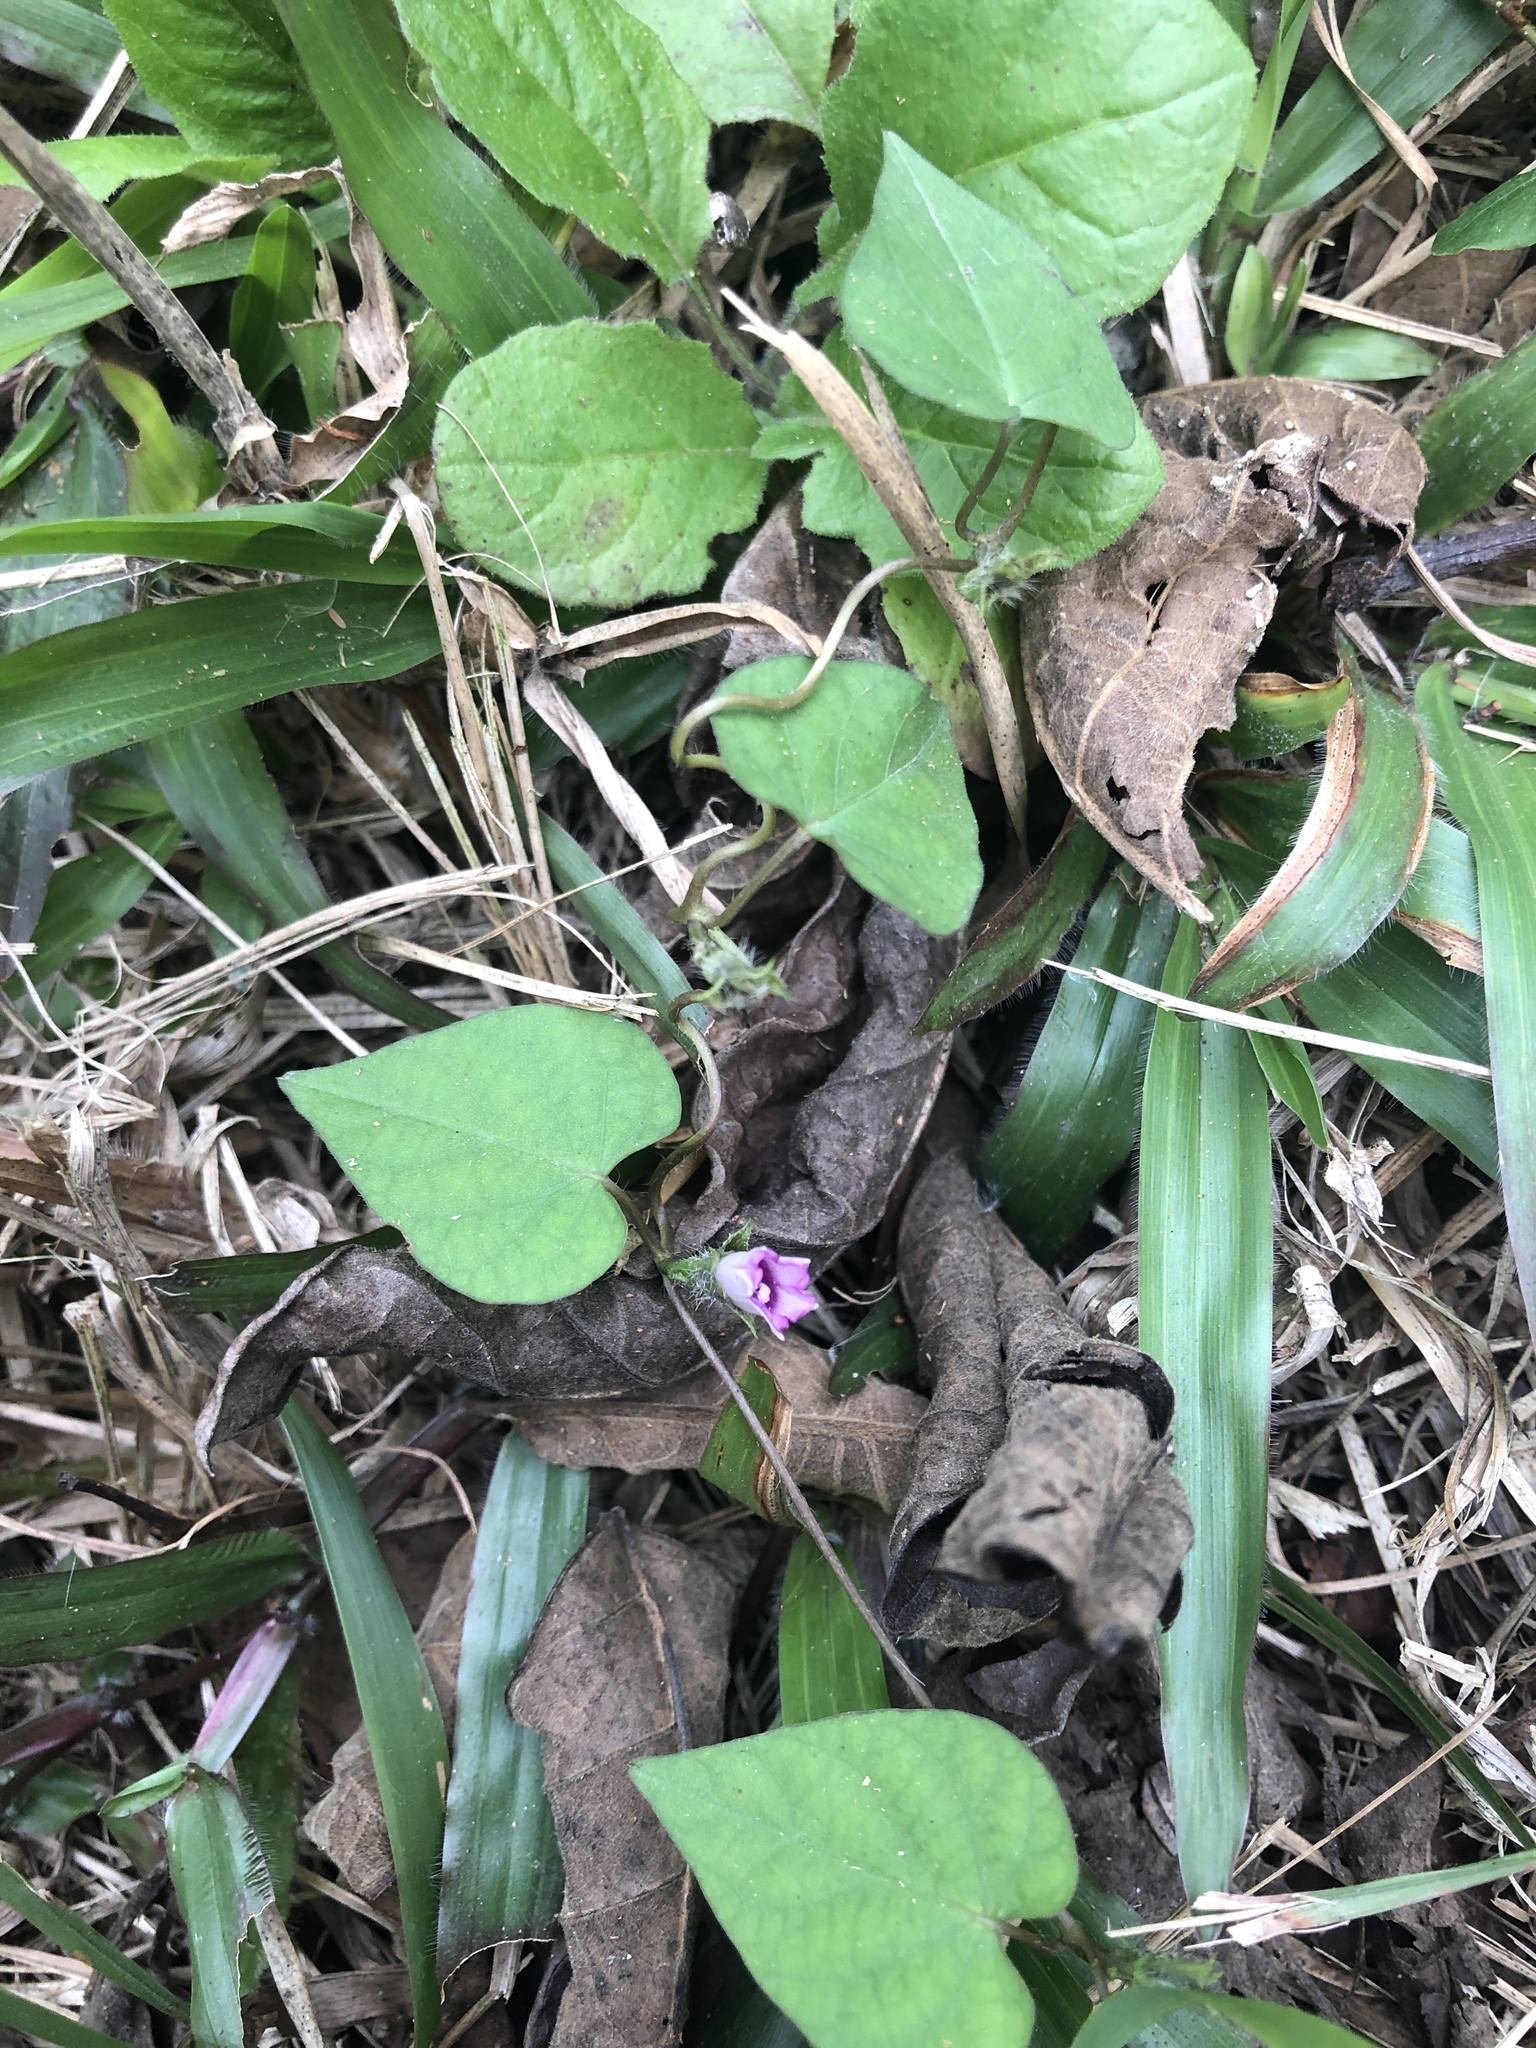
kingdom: Plantae
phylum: Tracheophyta
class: Magnoliopsida
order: Solanales
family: Convolvulaceae
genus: Ipomoea
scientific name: Ipomoea triloba
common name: Little-bell
